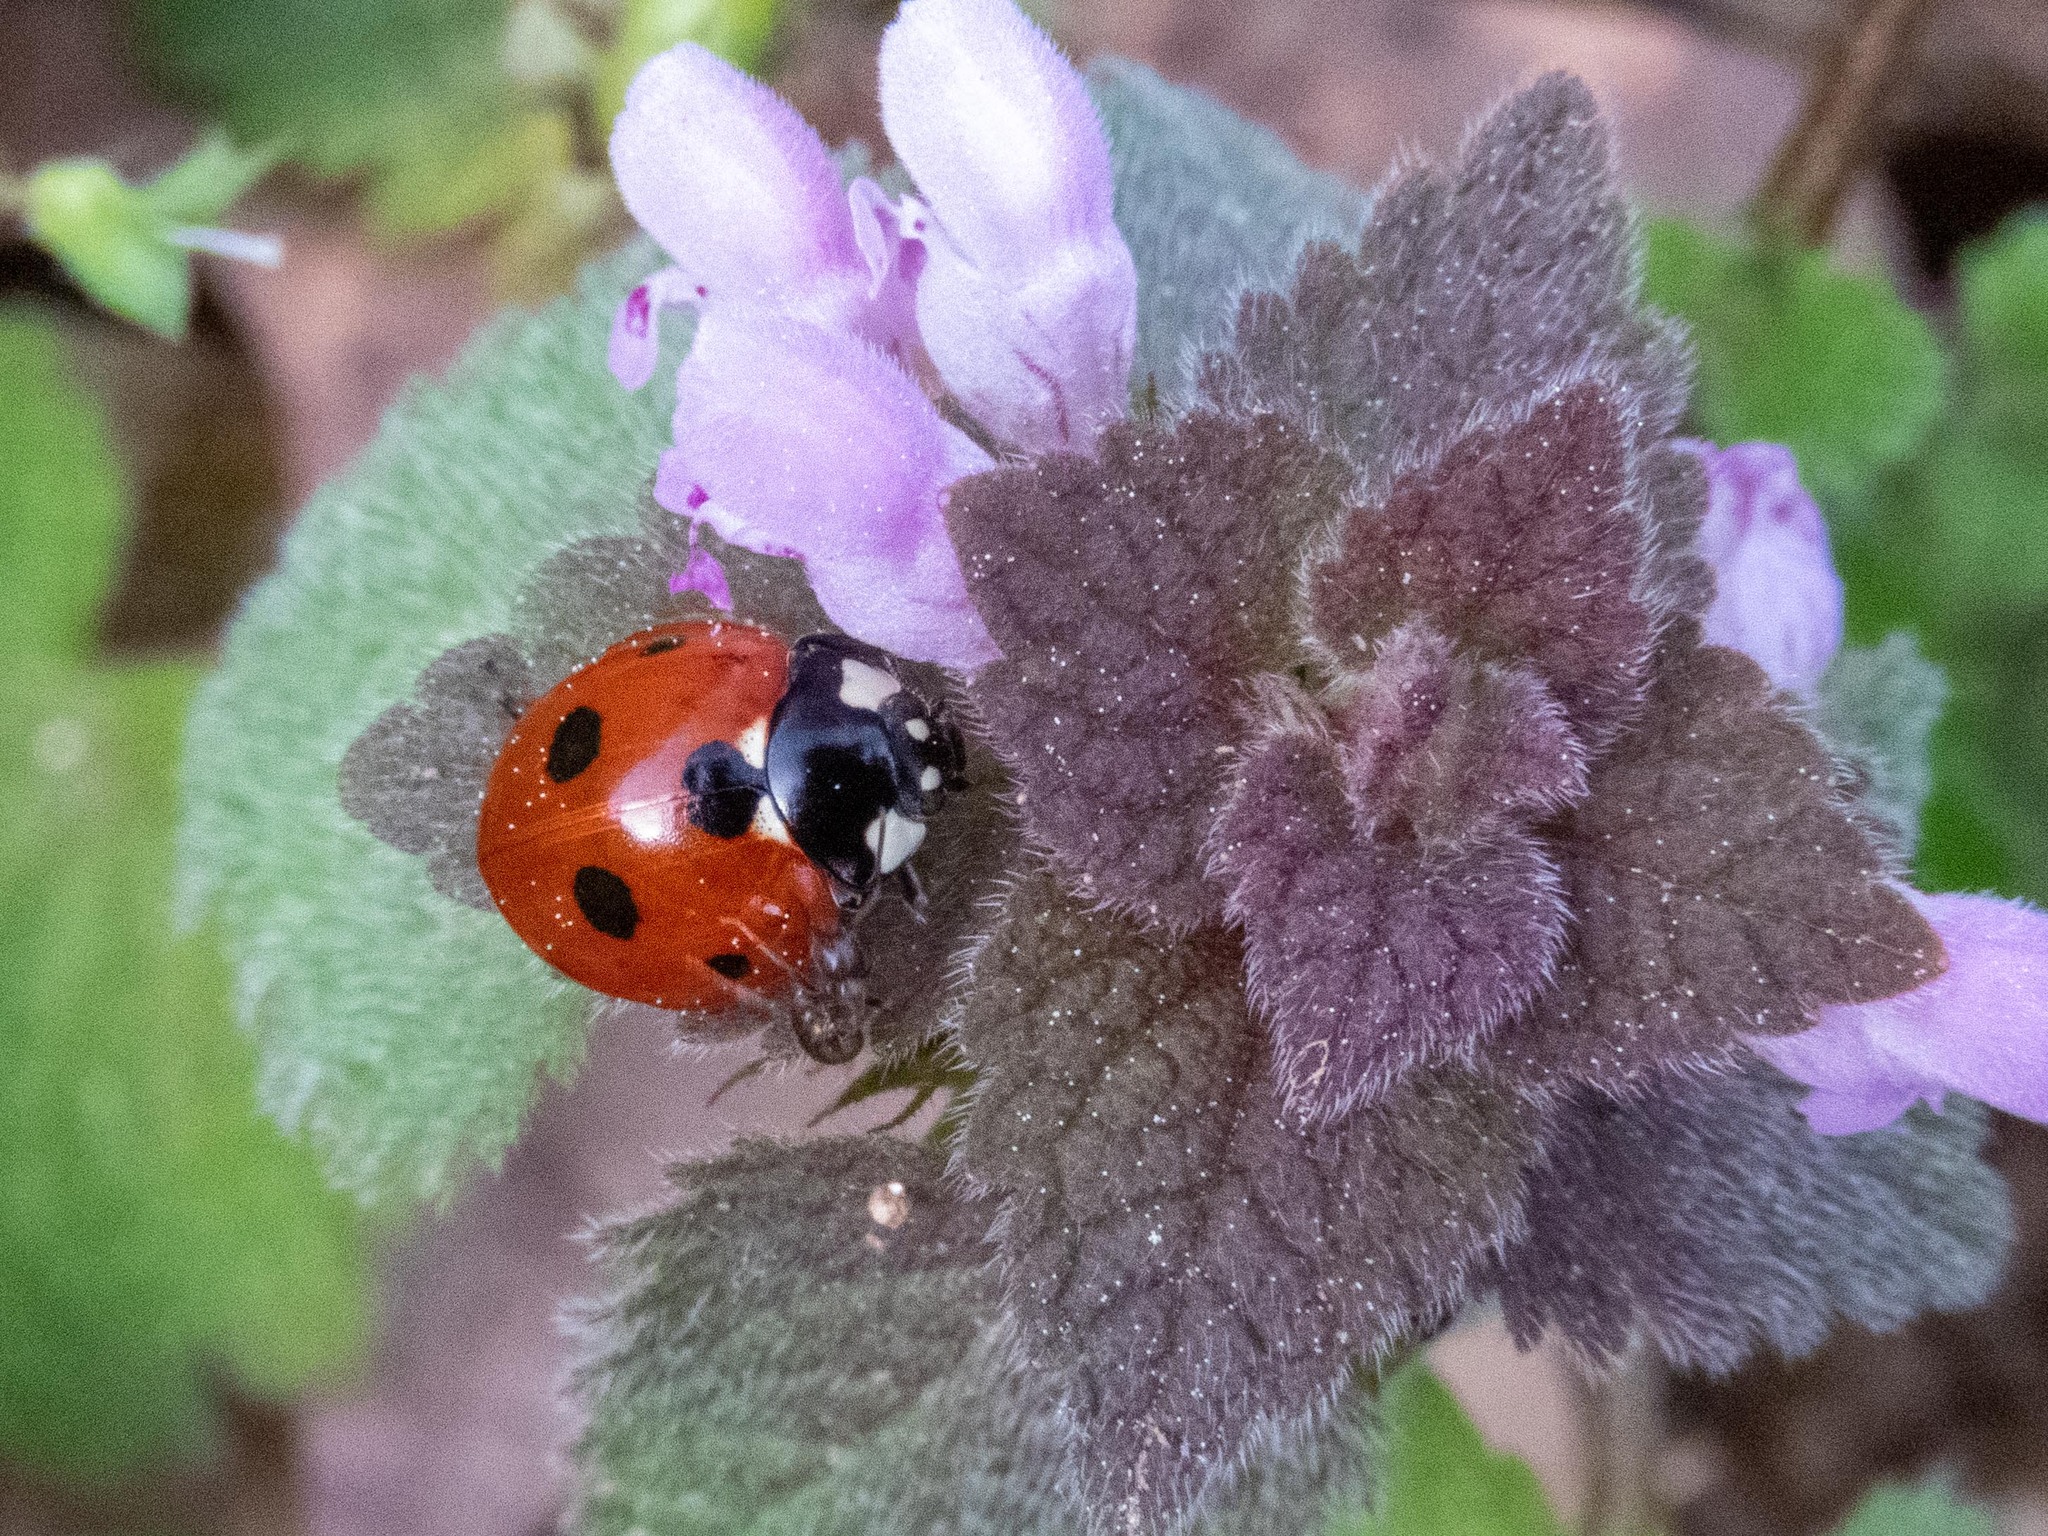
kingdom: Animalia
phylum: Arthropoda
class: Insecta
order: Coleoptera
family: Coccinellidae
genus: Coccinella
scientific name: Coccinella septempunctata
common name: Sevenspotted lady beetle
